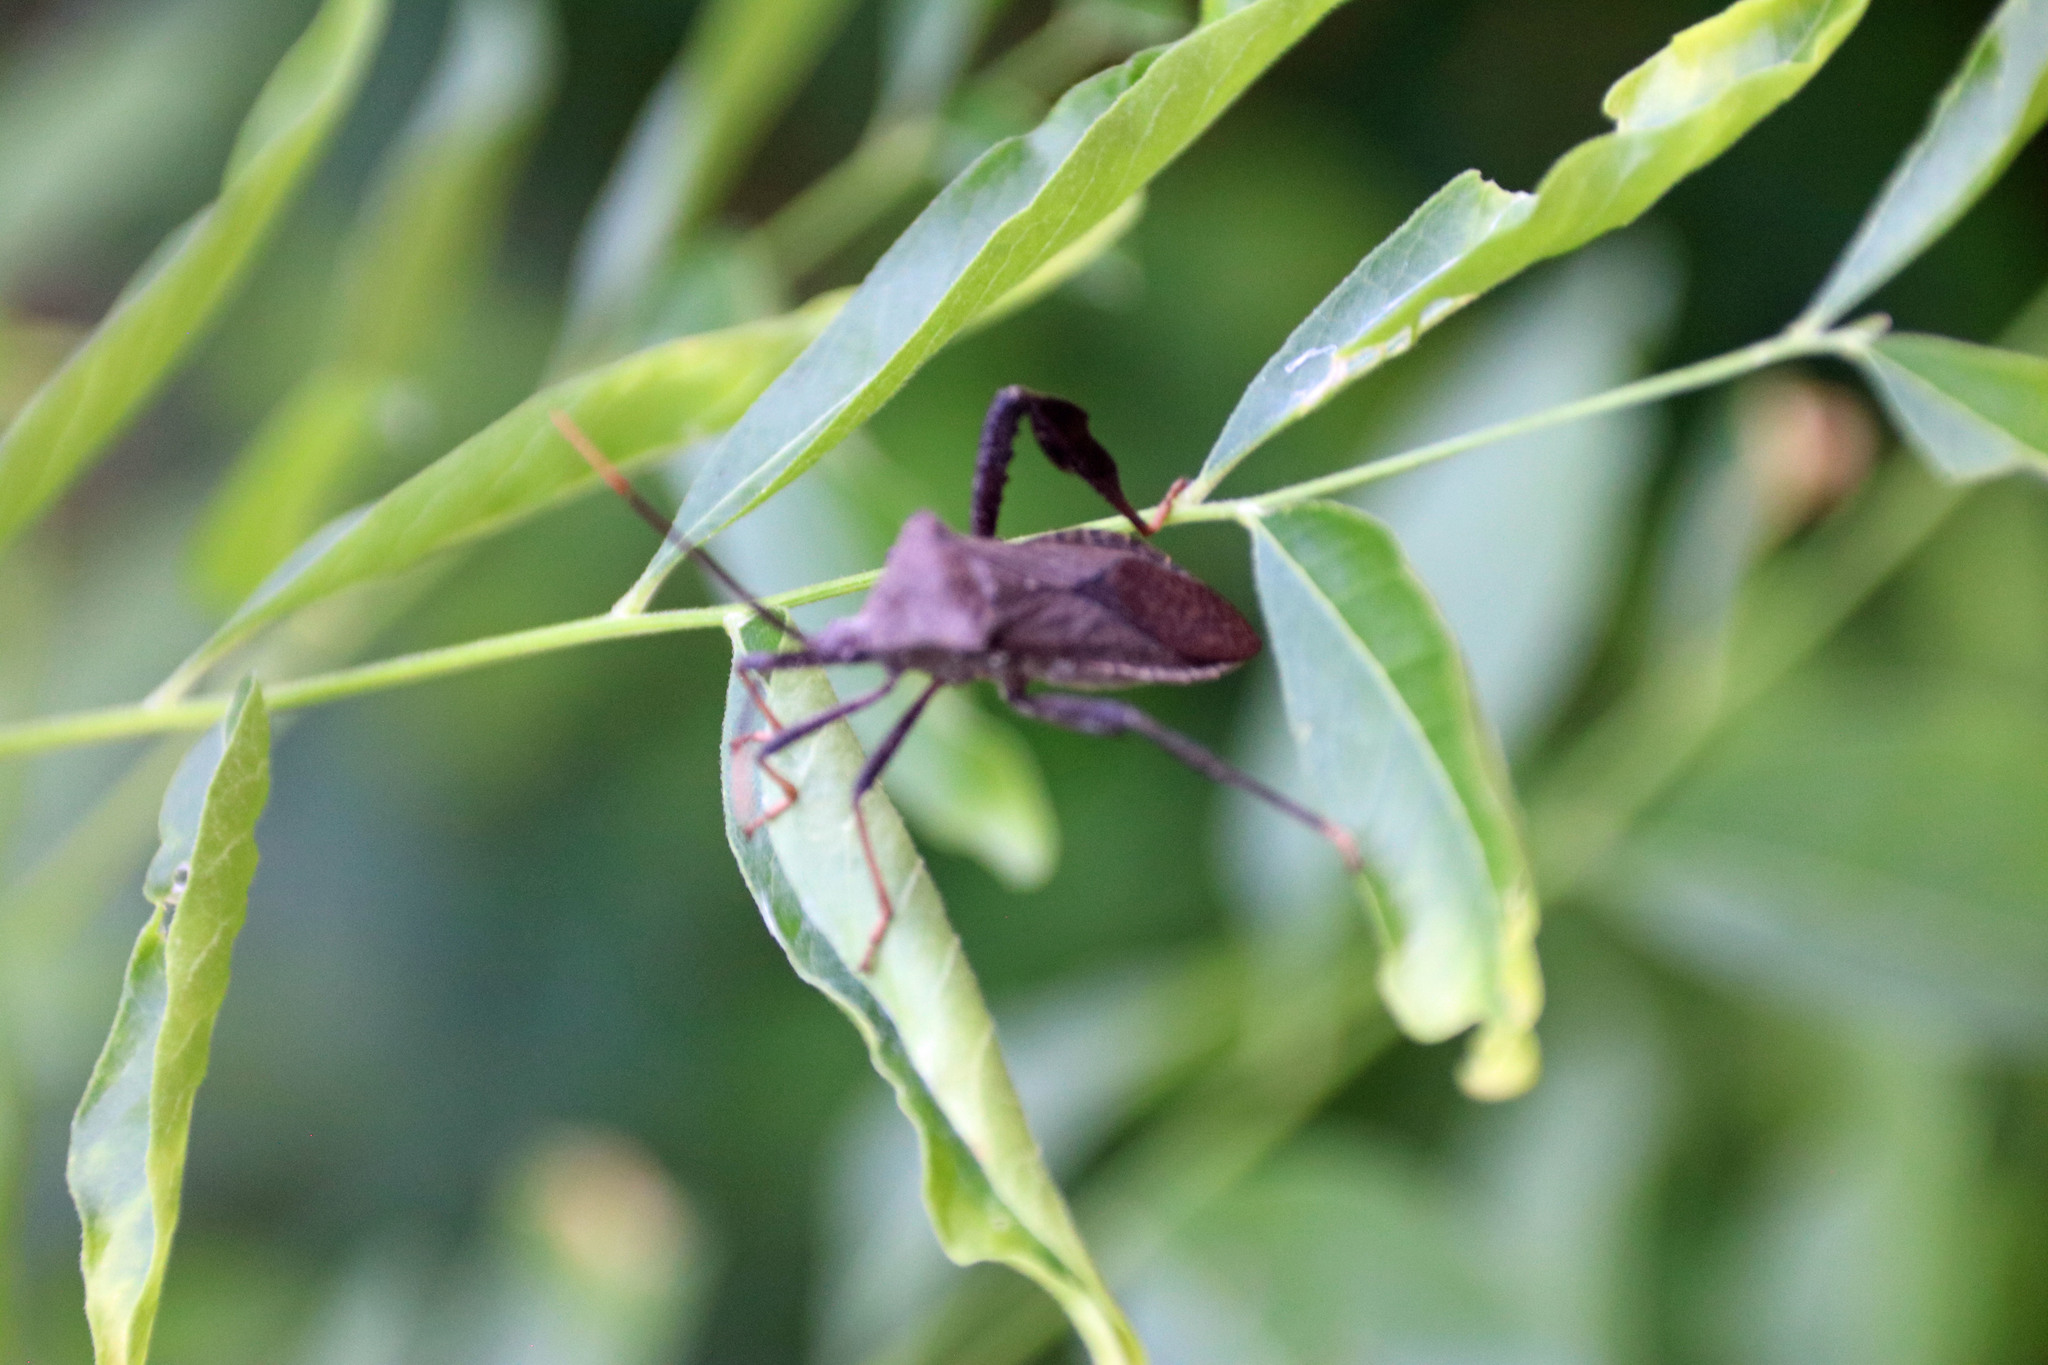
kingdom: Animalia
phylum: Arthropoda
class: Insecta
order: Hemiptera
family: Coreidae
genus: Acanthocephala
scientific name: Acanthocephala terminalis
